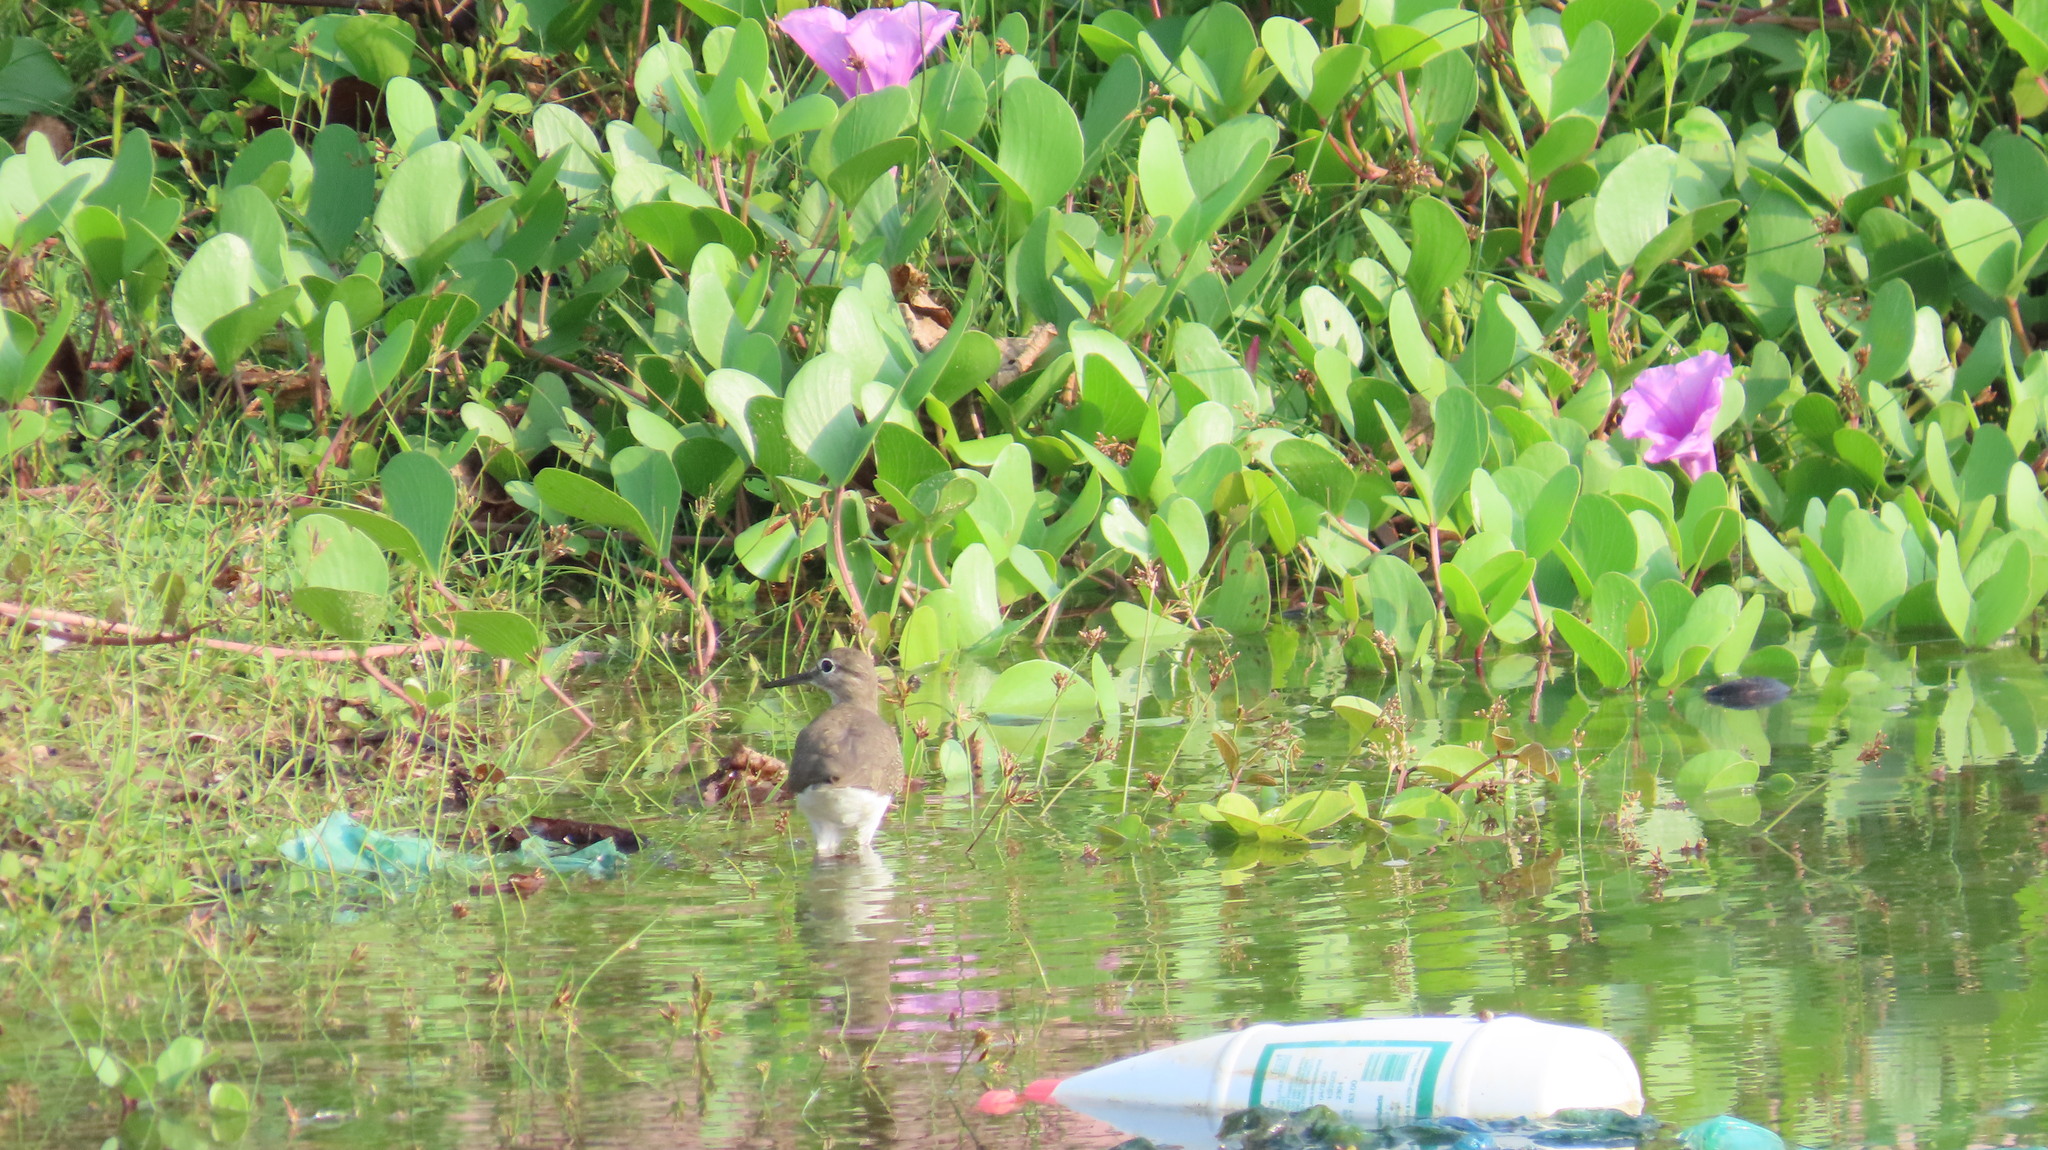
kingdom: Animalia
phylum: Chordata
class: Aves
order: Charadriiformes
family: Scolopacidae
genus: Actitis
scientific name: Actitis hypoleucos
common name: Common sandpiper
